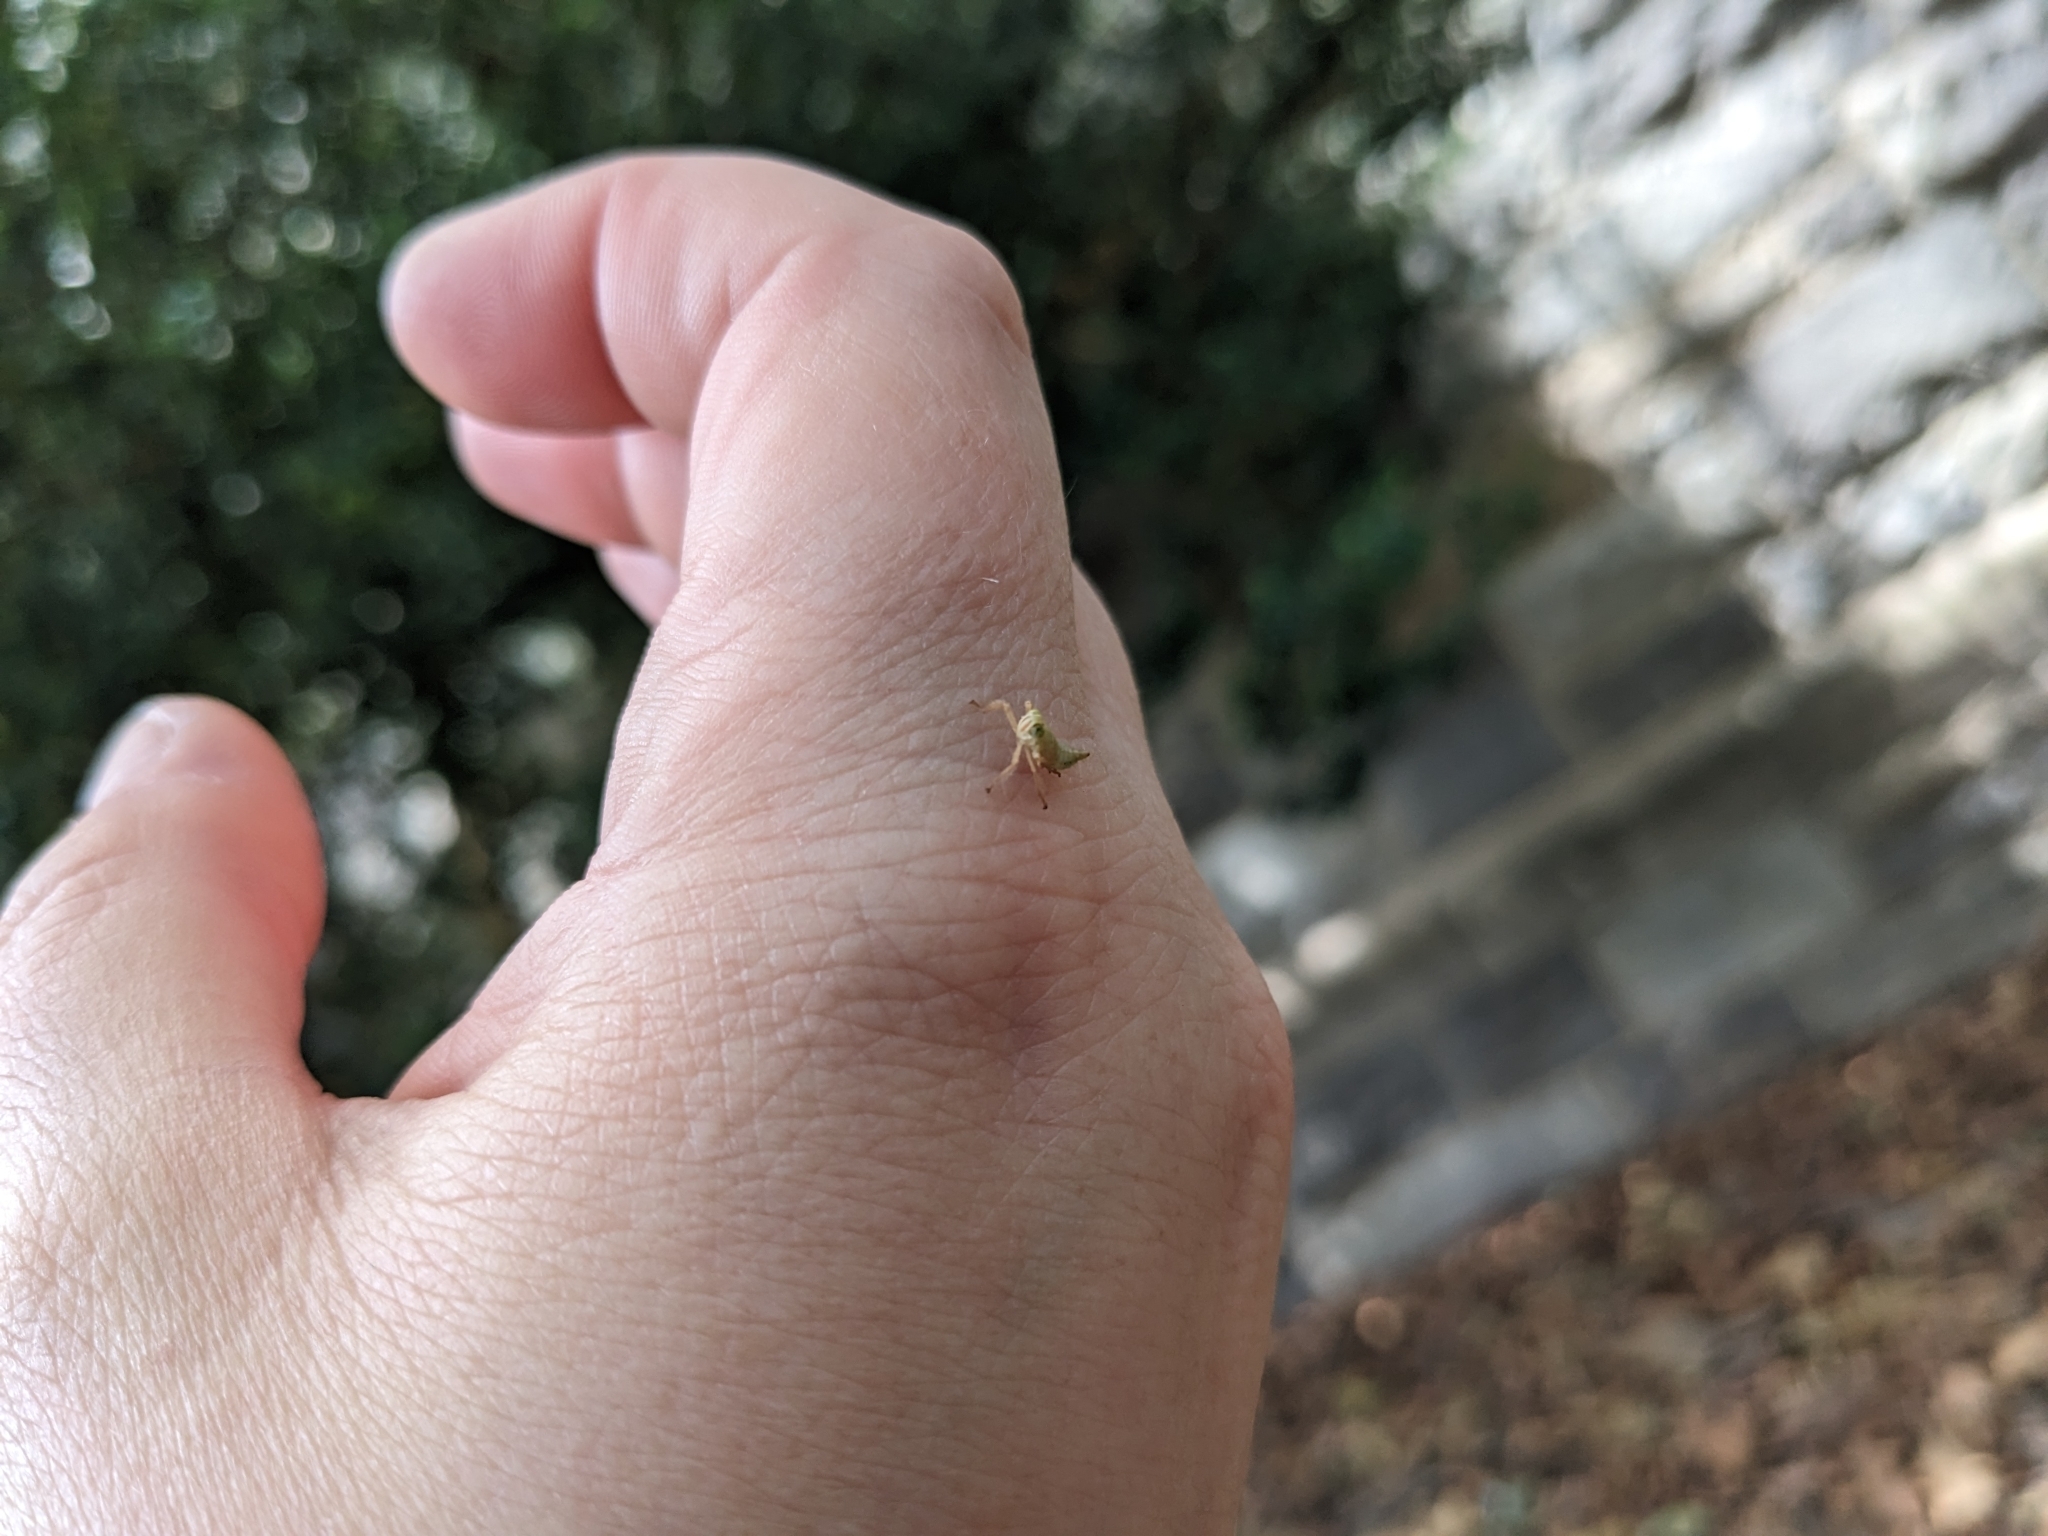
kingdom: Animalia
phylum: Arthropoda
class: Insecta
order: Hemiptera
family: Cicadellidae
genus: Jikradia
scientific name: Jikradia olitoria
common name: Coppery leafhopper
